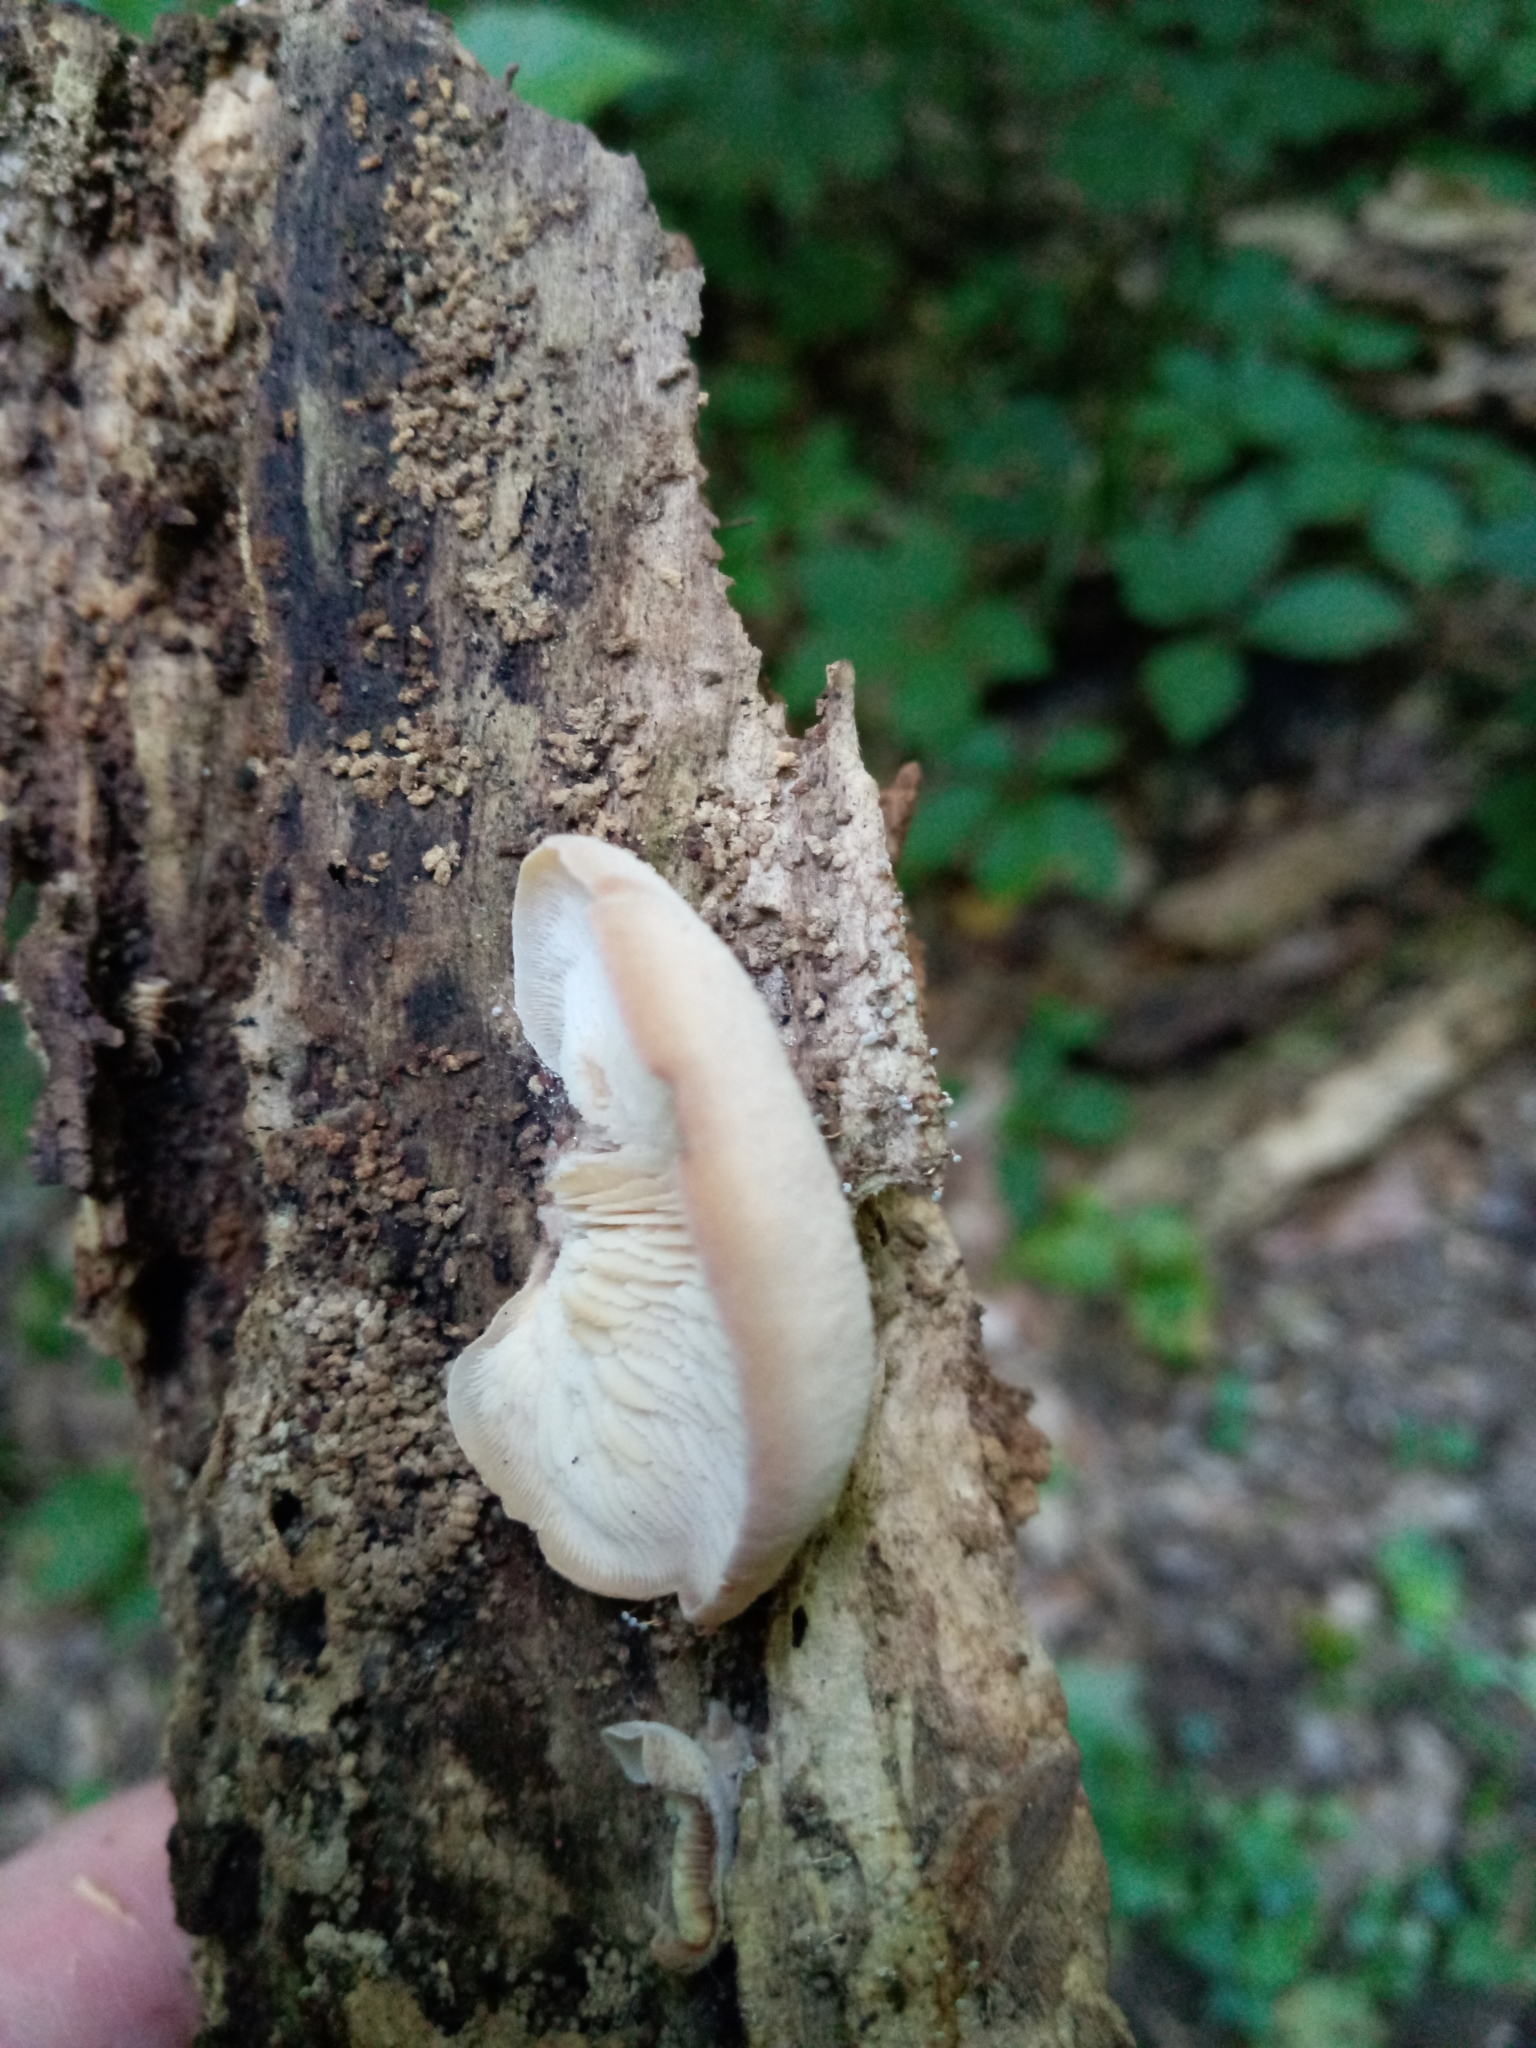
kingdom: Fungi
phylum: Basidiomycota
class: Agaricomycetes
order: Russulales
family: Auriscalpiaceae
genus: Lentinellus
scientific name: Lentinellus ursinus
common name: Bear lentinus
